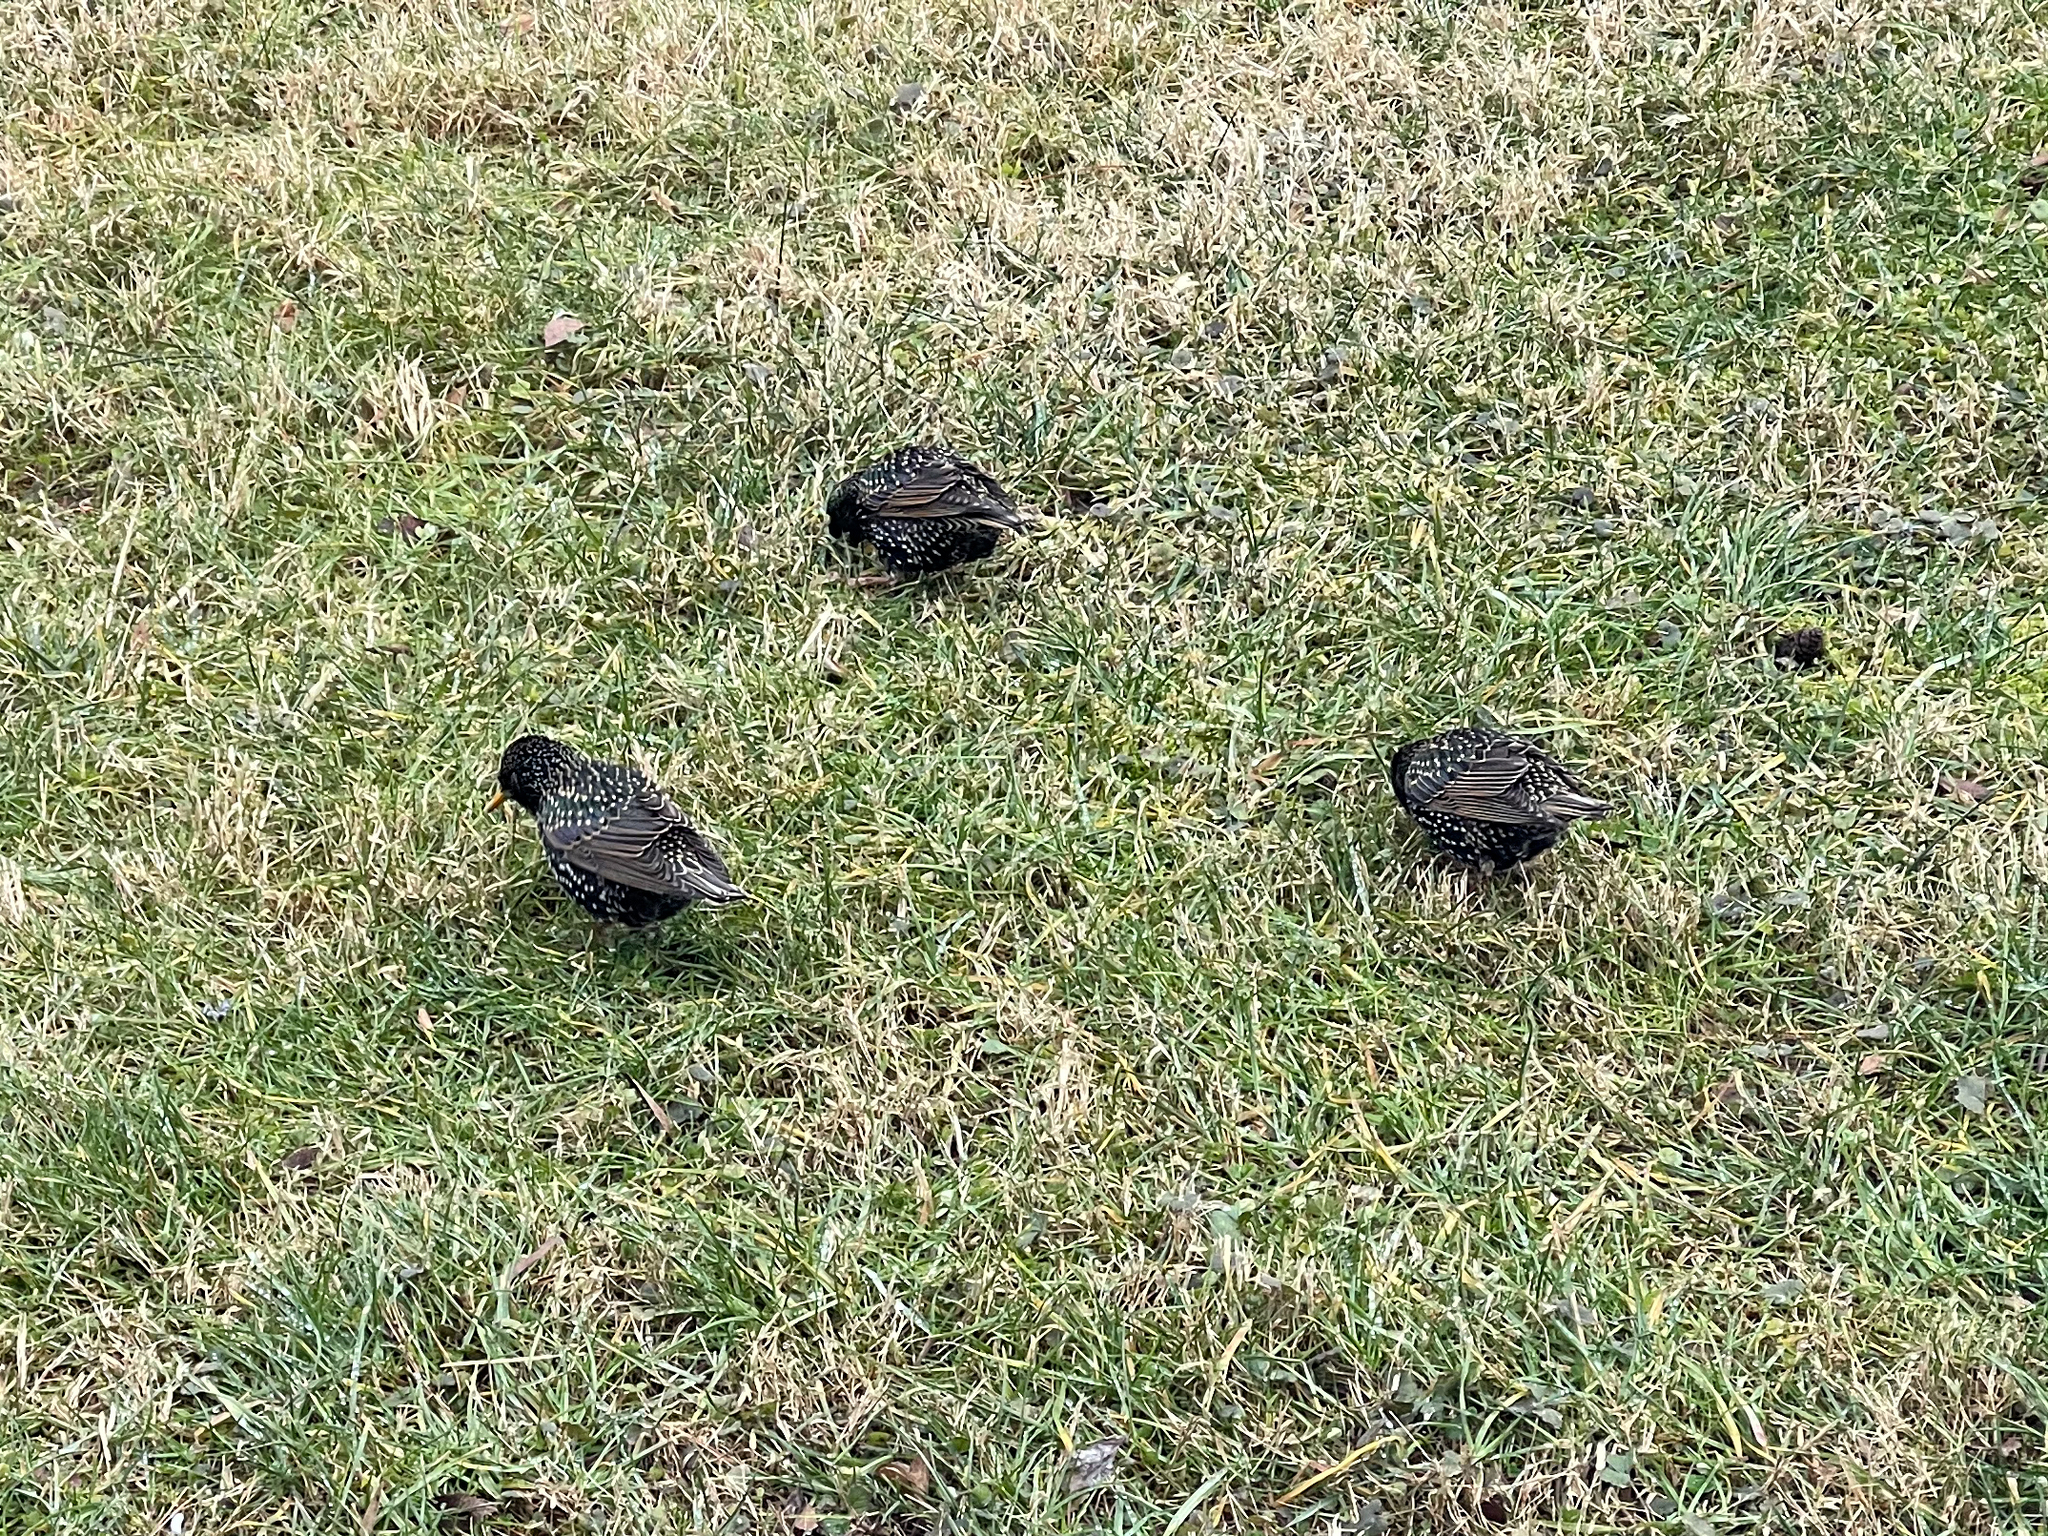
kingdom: Animalia
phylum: Chordata
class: Aves
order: Passeriformes
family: Sturnidae
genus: Sturnus
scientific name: Sturnus vulgaris
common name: Common starling
